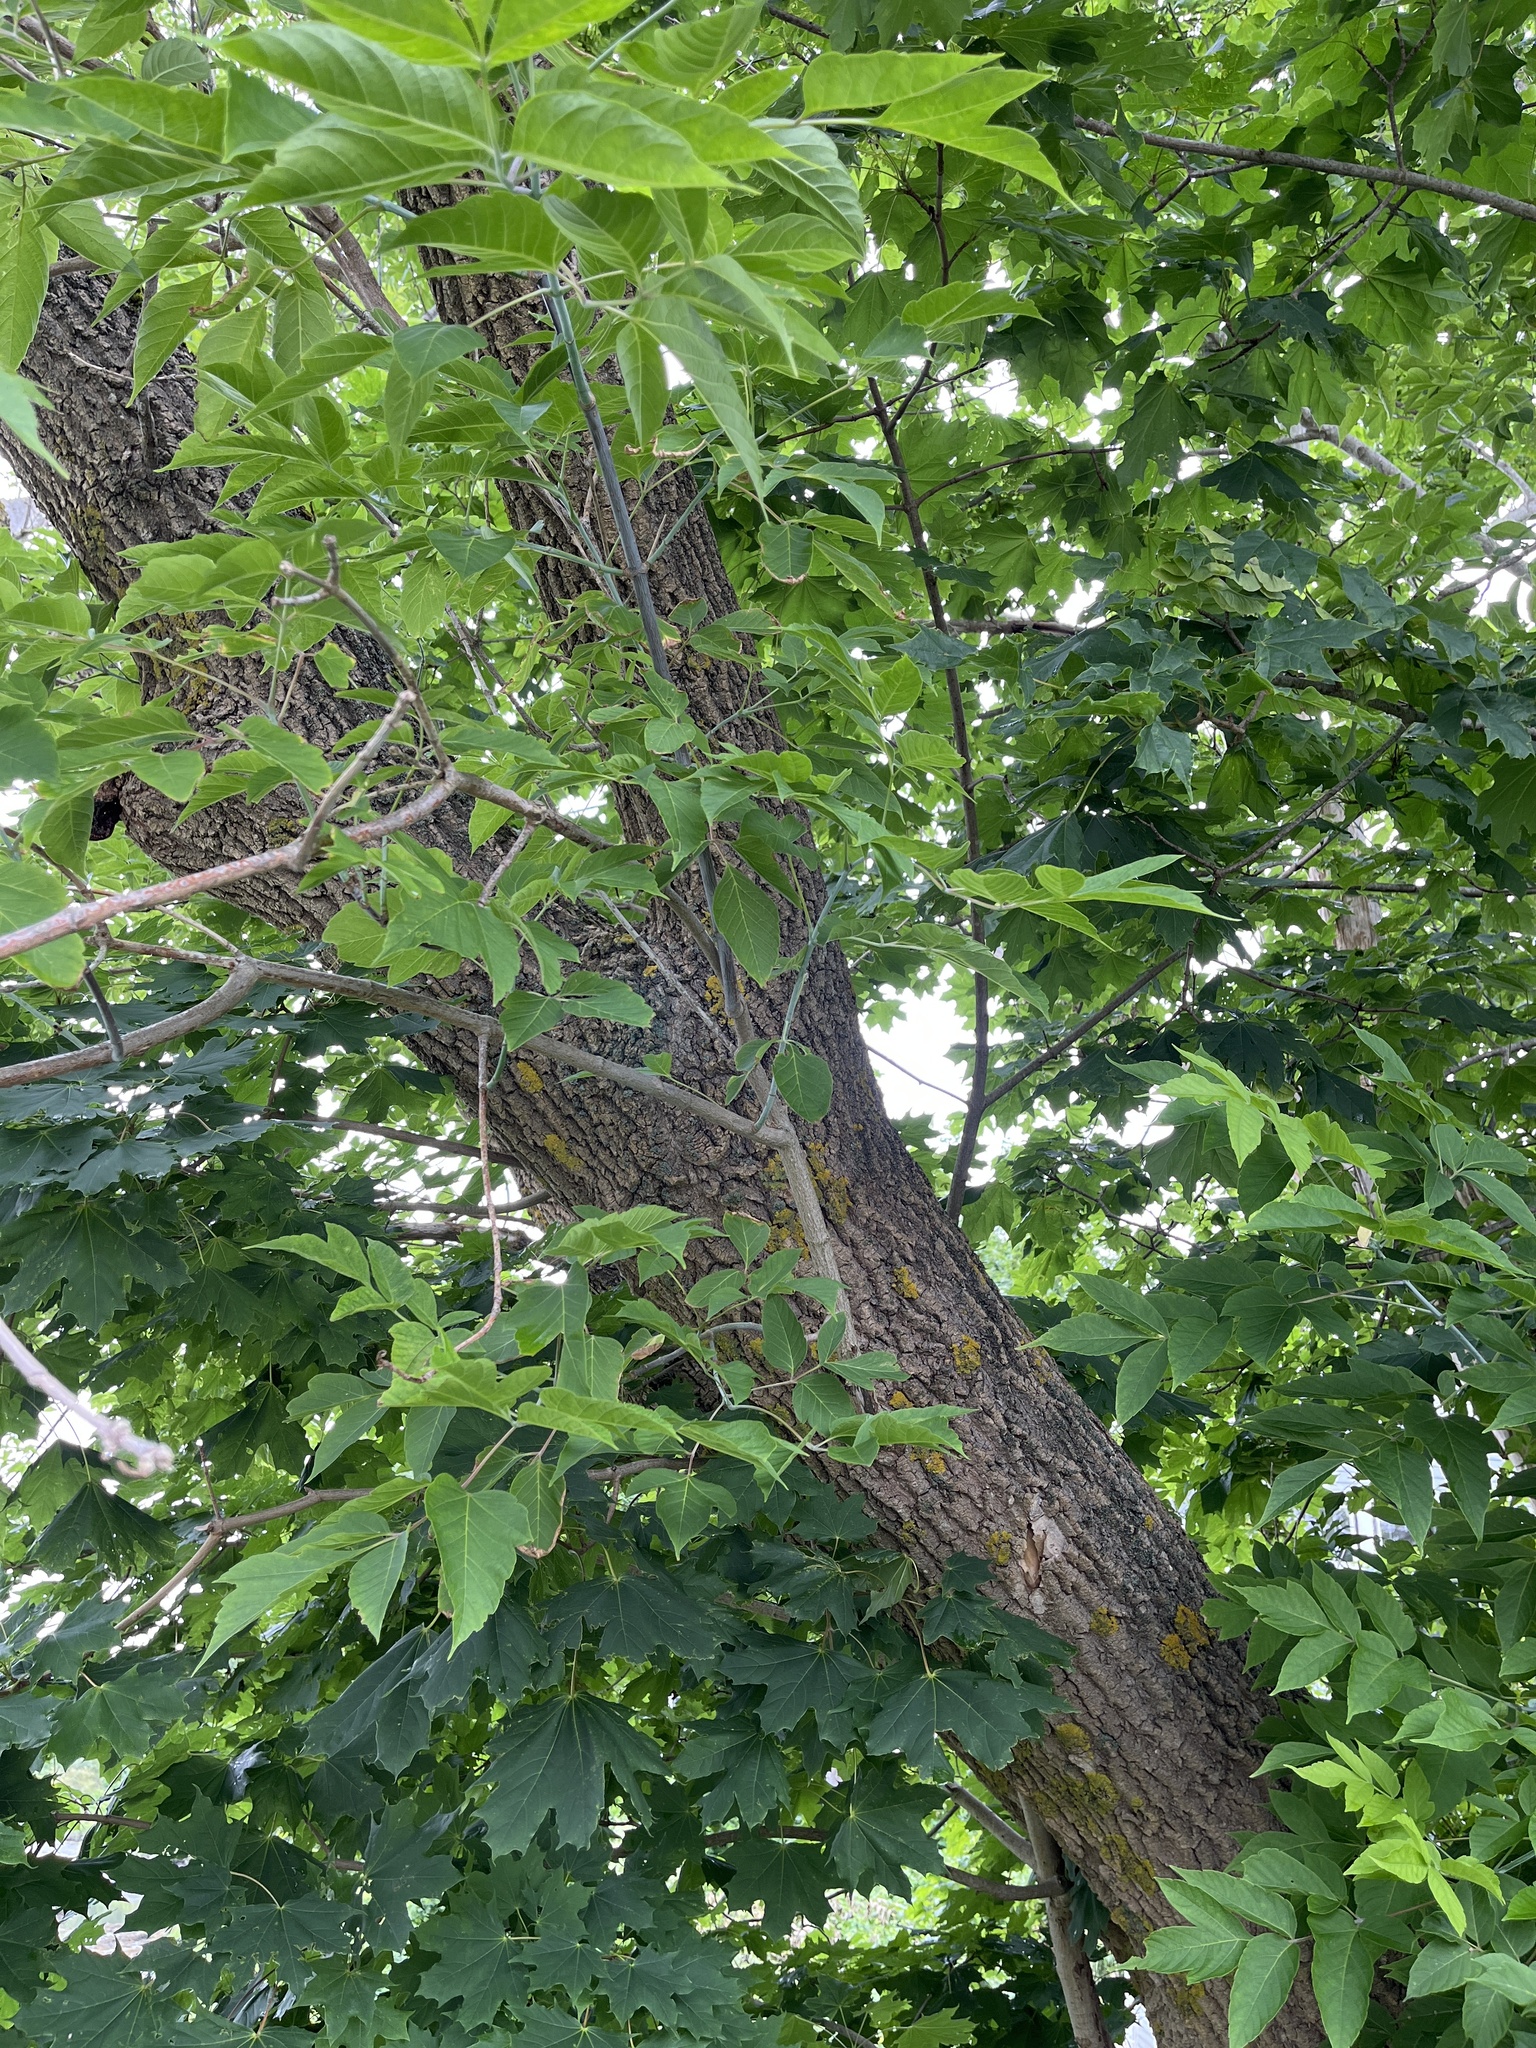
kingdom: Plantae
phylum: Tracheophyta
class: Magnoliopsida
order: Sapindales
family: Sapindaceae
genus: Acer
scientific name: Acer negundo
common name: Ashleaf maple
